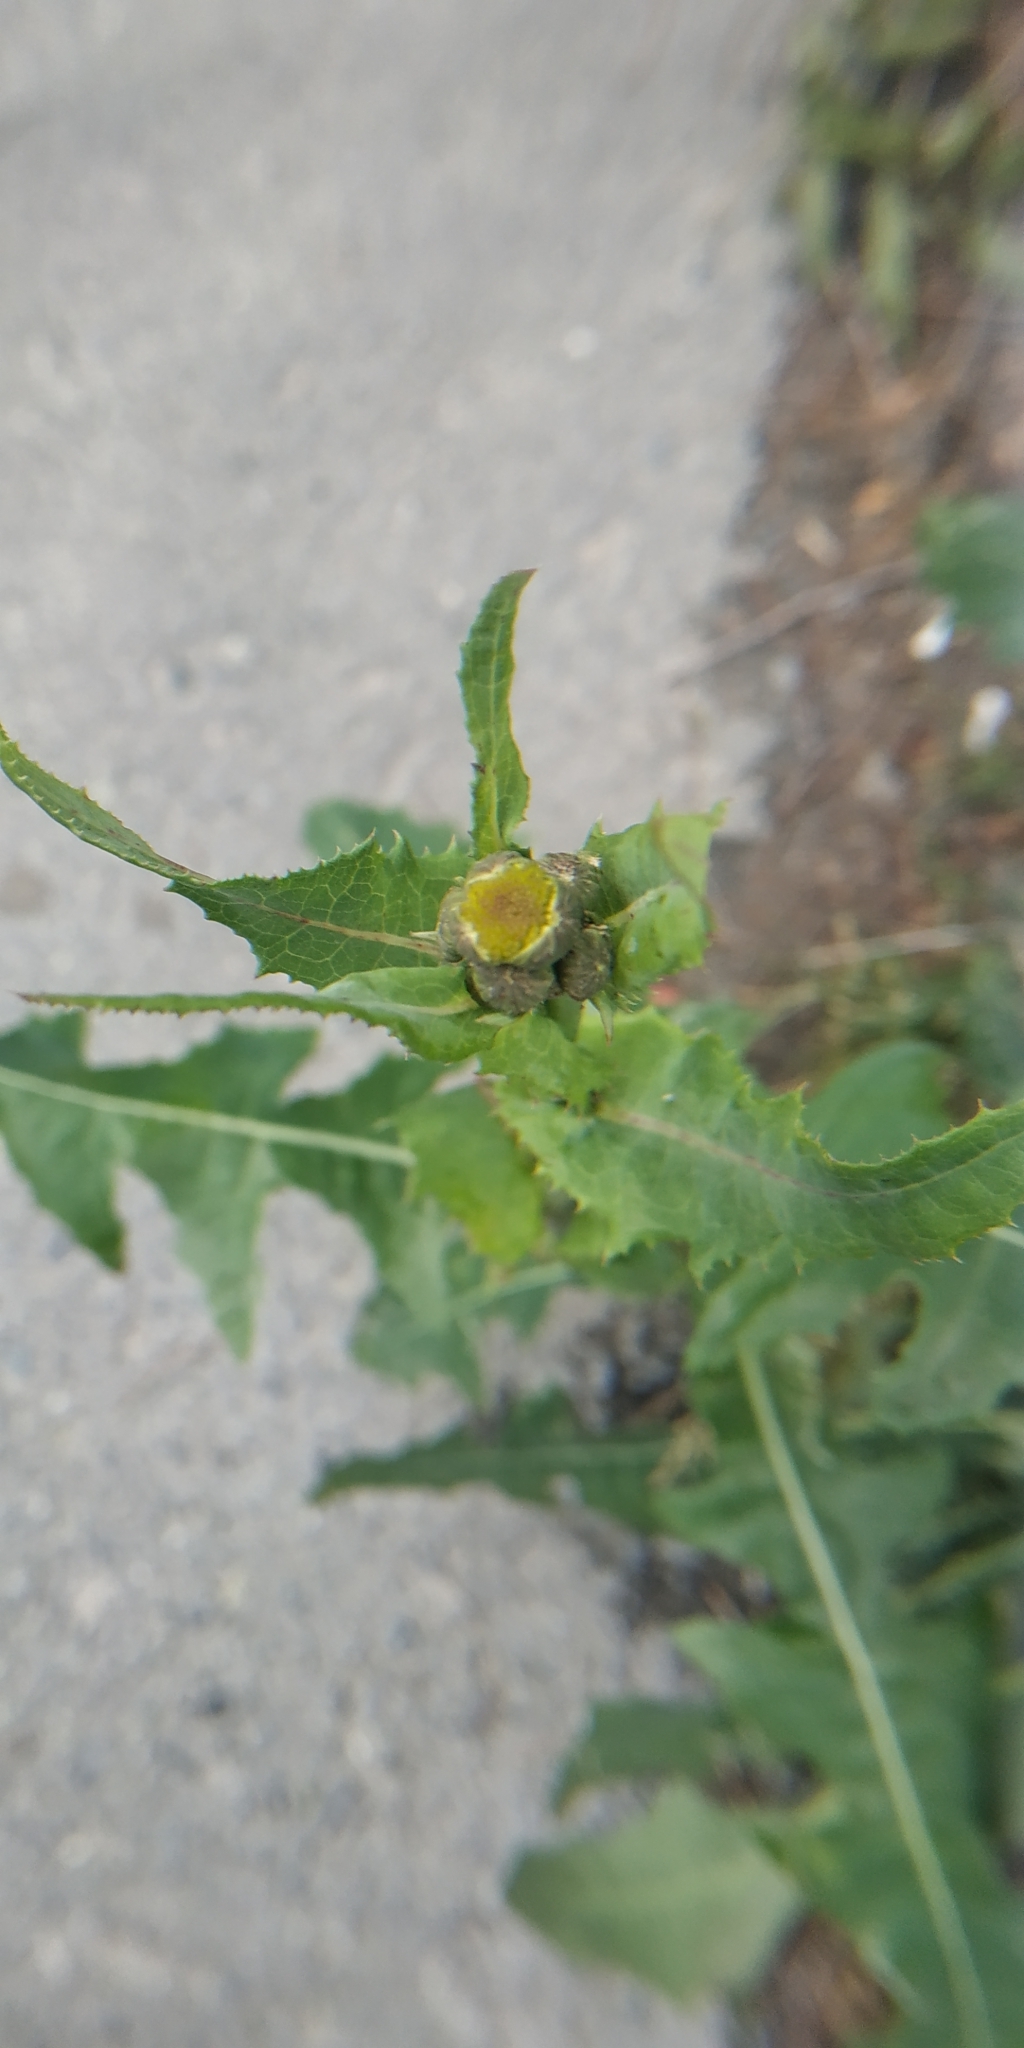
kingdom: Plantae
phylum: Tracheophyta
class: Magnoliopsida
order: Asterales
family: Asteraceae
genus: Sonchus
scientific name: Sonchus oleraceus
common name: Common sowthistle
